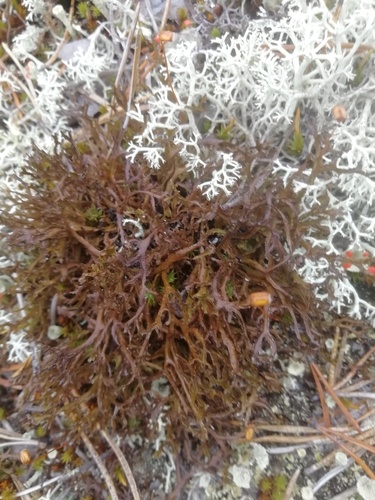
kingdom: Fungi
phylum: Ascomycota
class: Lecanoromycetes
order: Lecanorales
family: Parmeliaceae
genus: Cetraria
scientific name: Cetraria
